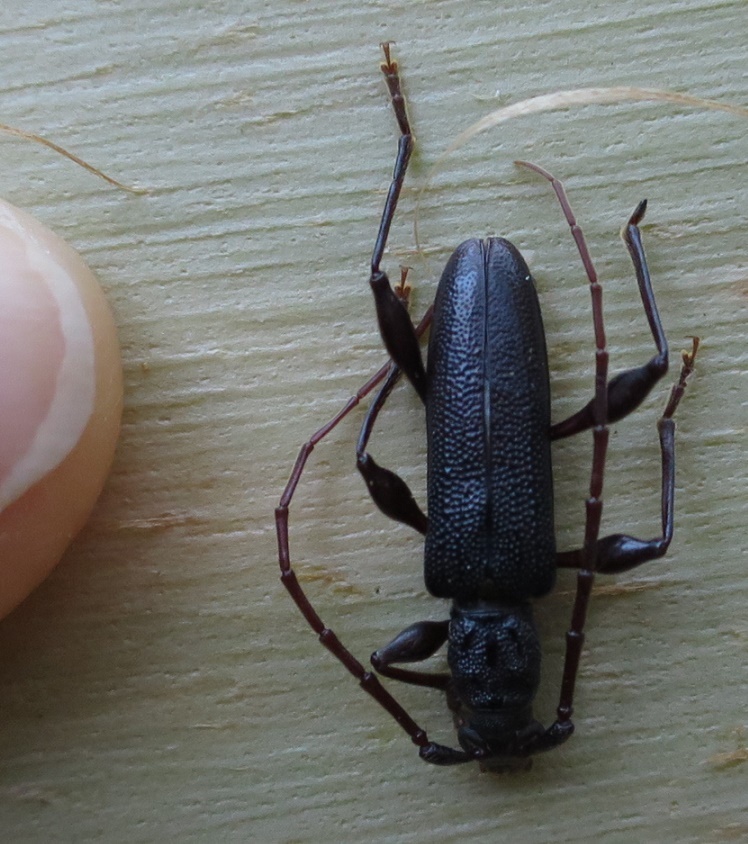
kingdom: Animalia
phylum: Arthropoda
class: Insecta
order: Coleoptera
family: Cerambycidae
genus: Callidiopis
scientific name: Callidiopis scutellaris
